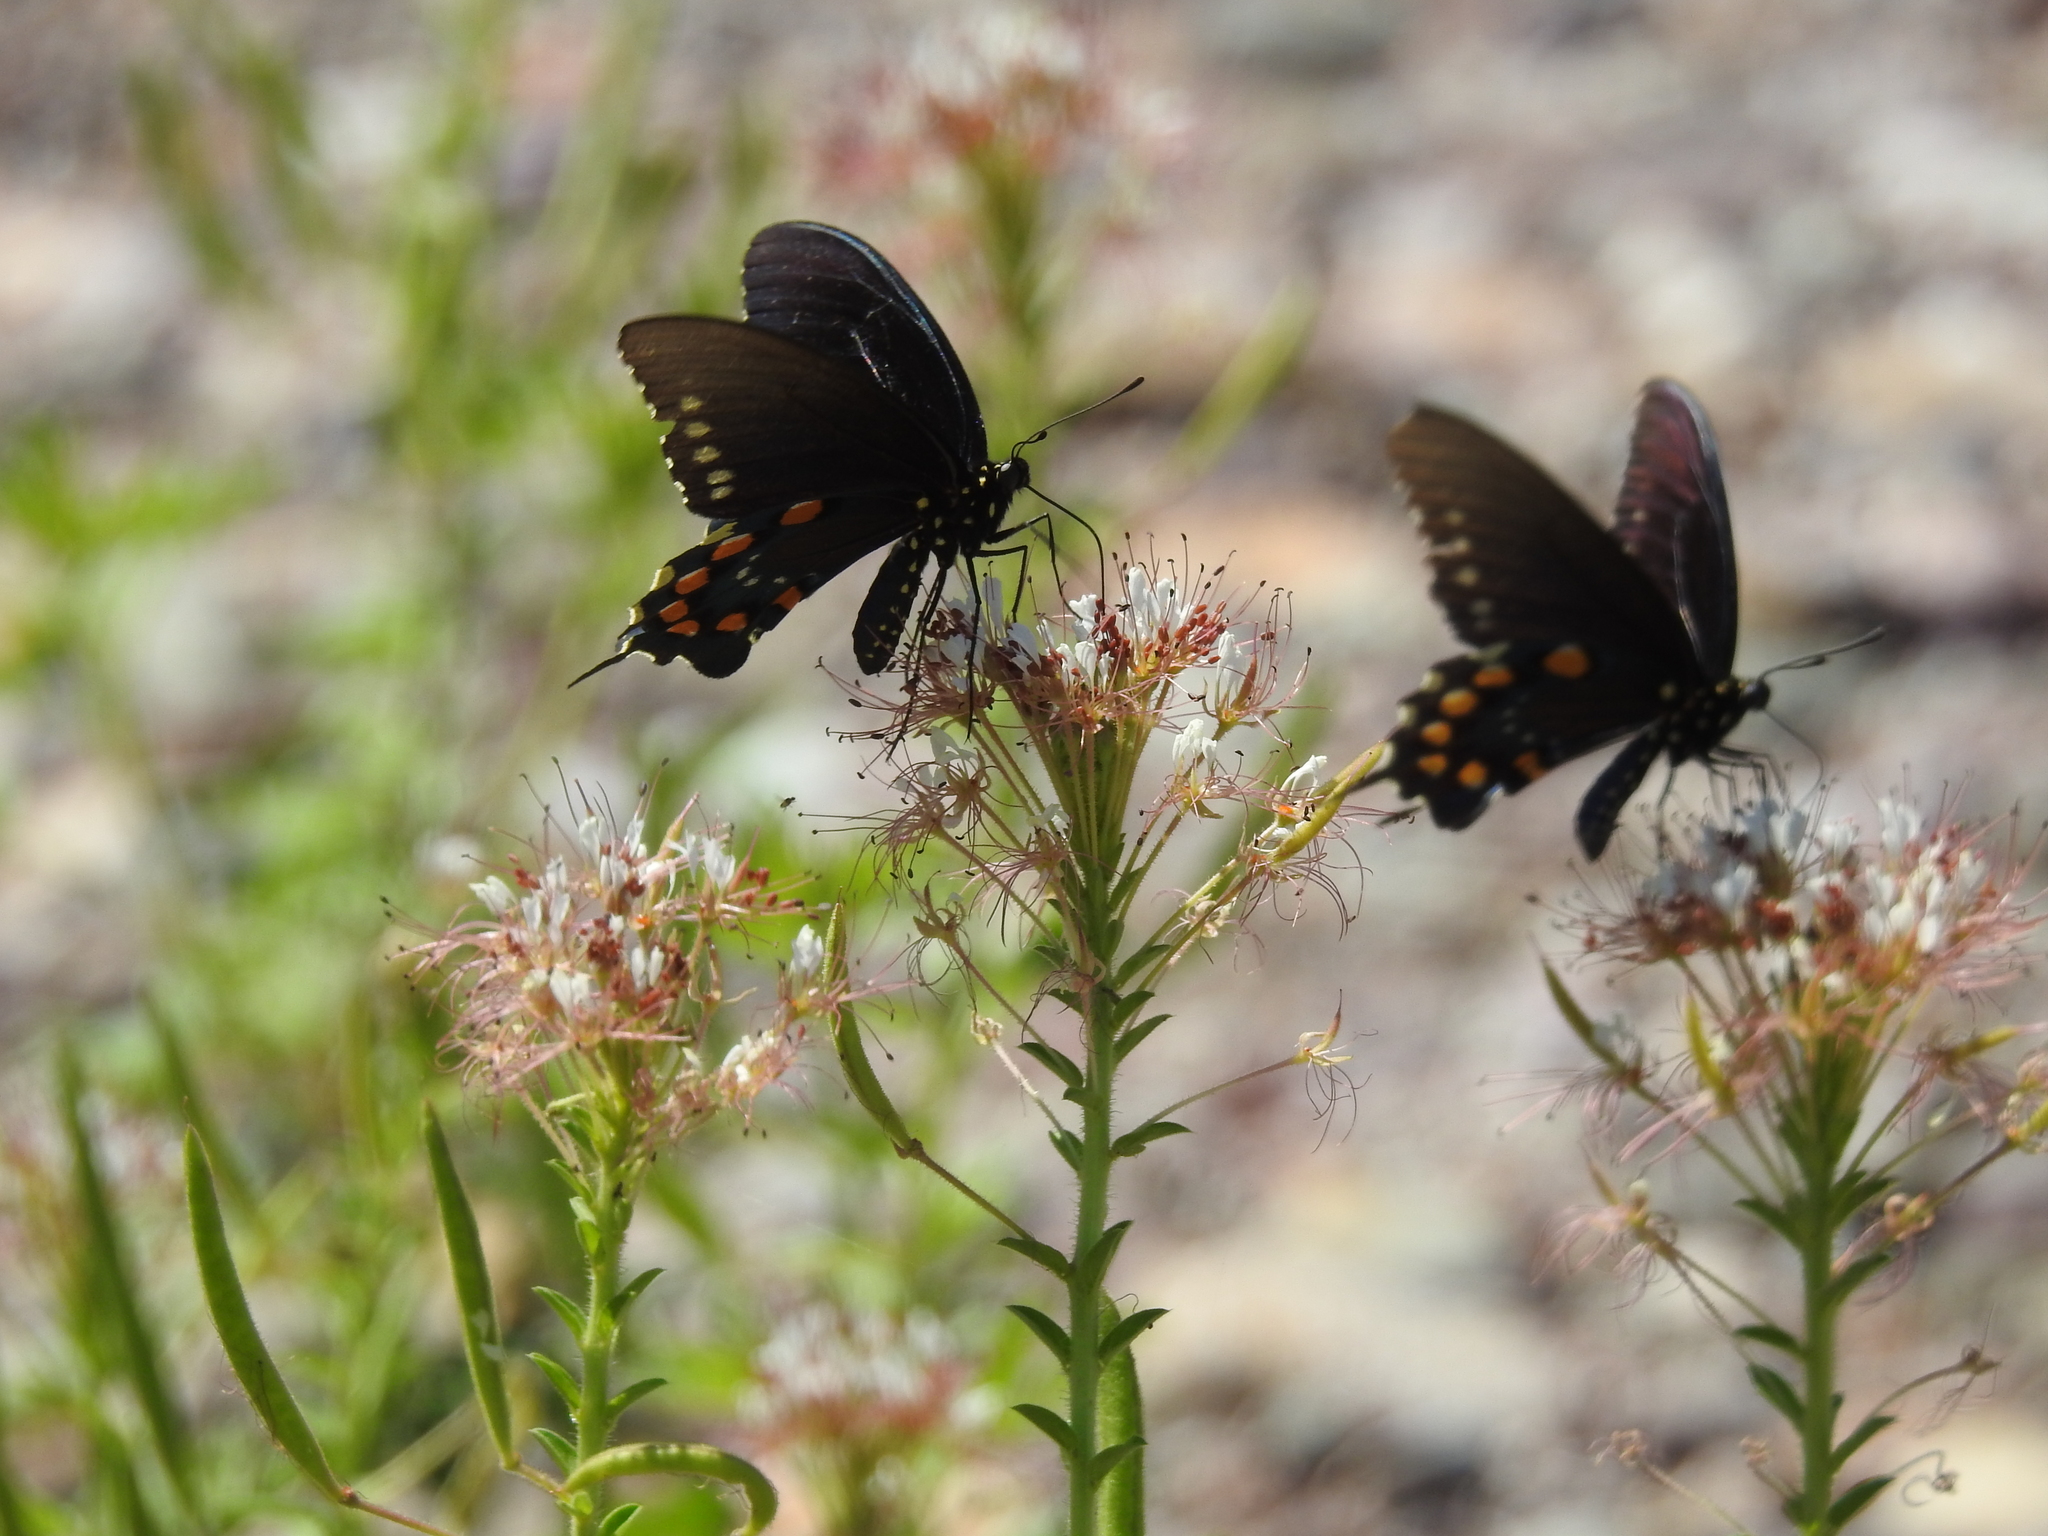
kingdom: Animalia
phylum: Arthropoda
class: Insecta
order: Lepidoptera
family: Papilionidae
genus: Battus
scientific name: Battus philenor
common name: Pipevine swallowtail
